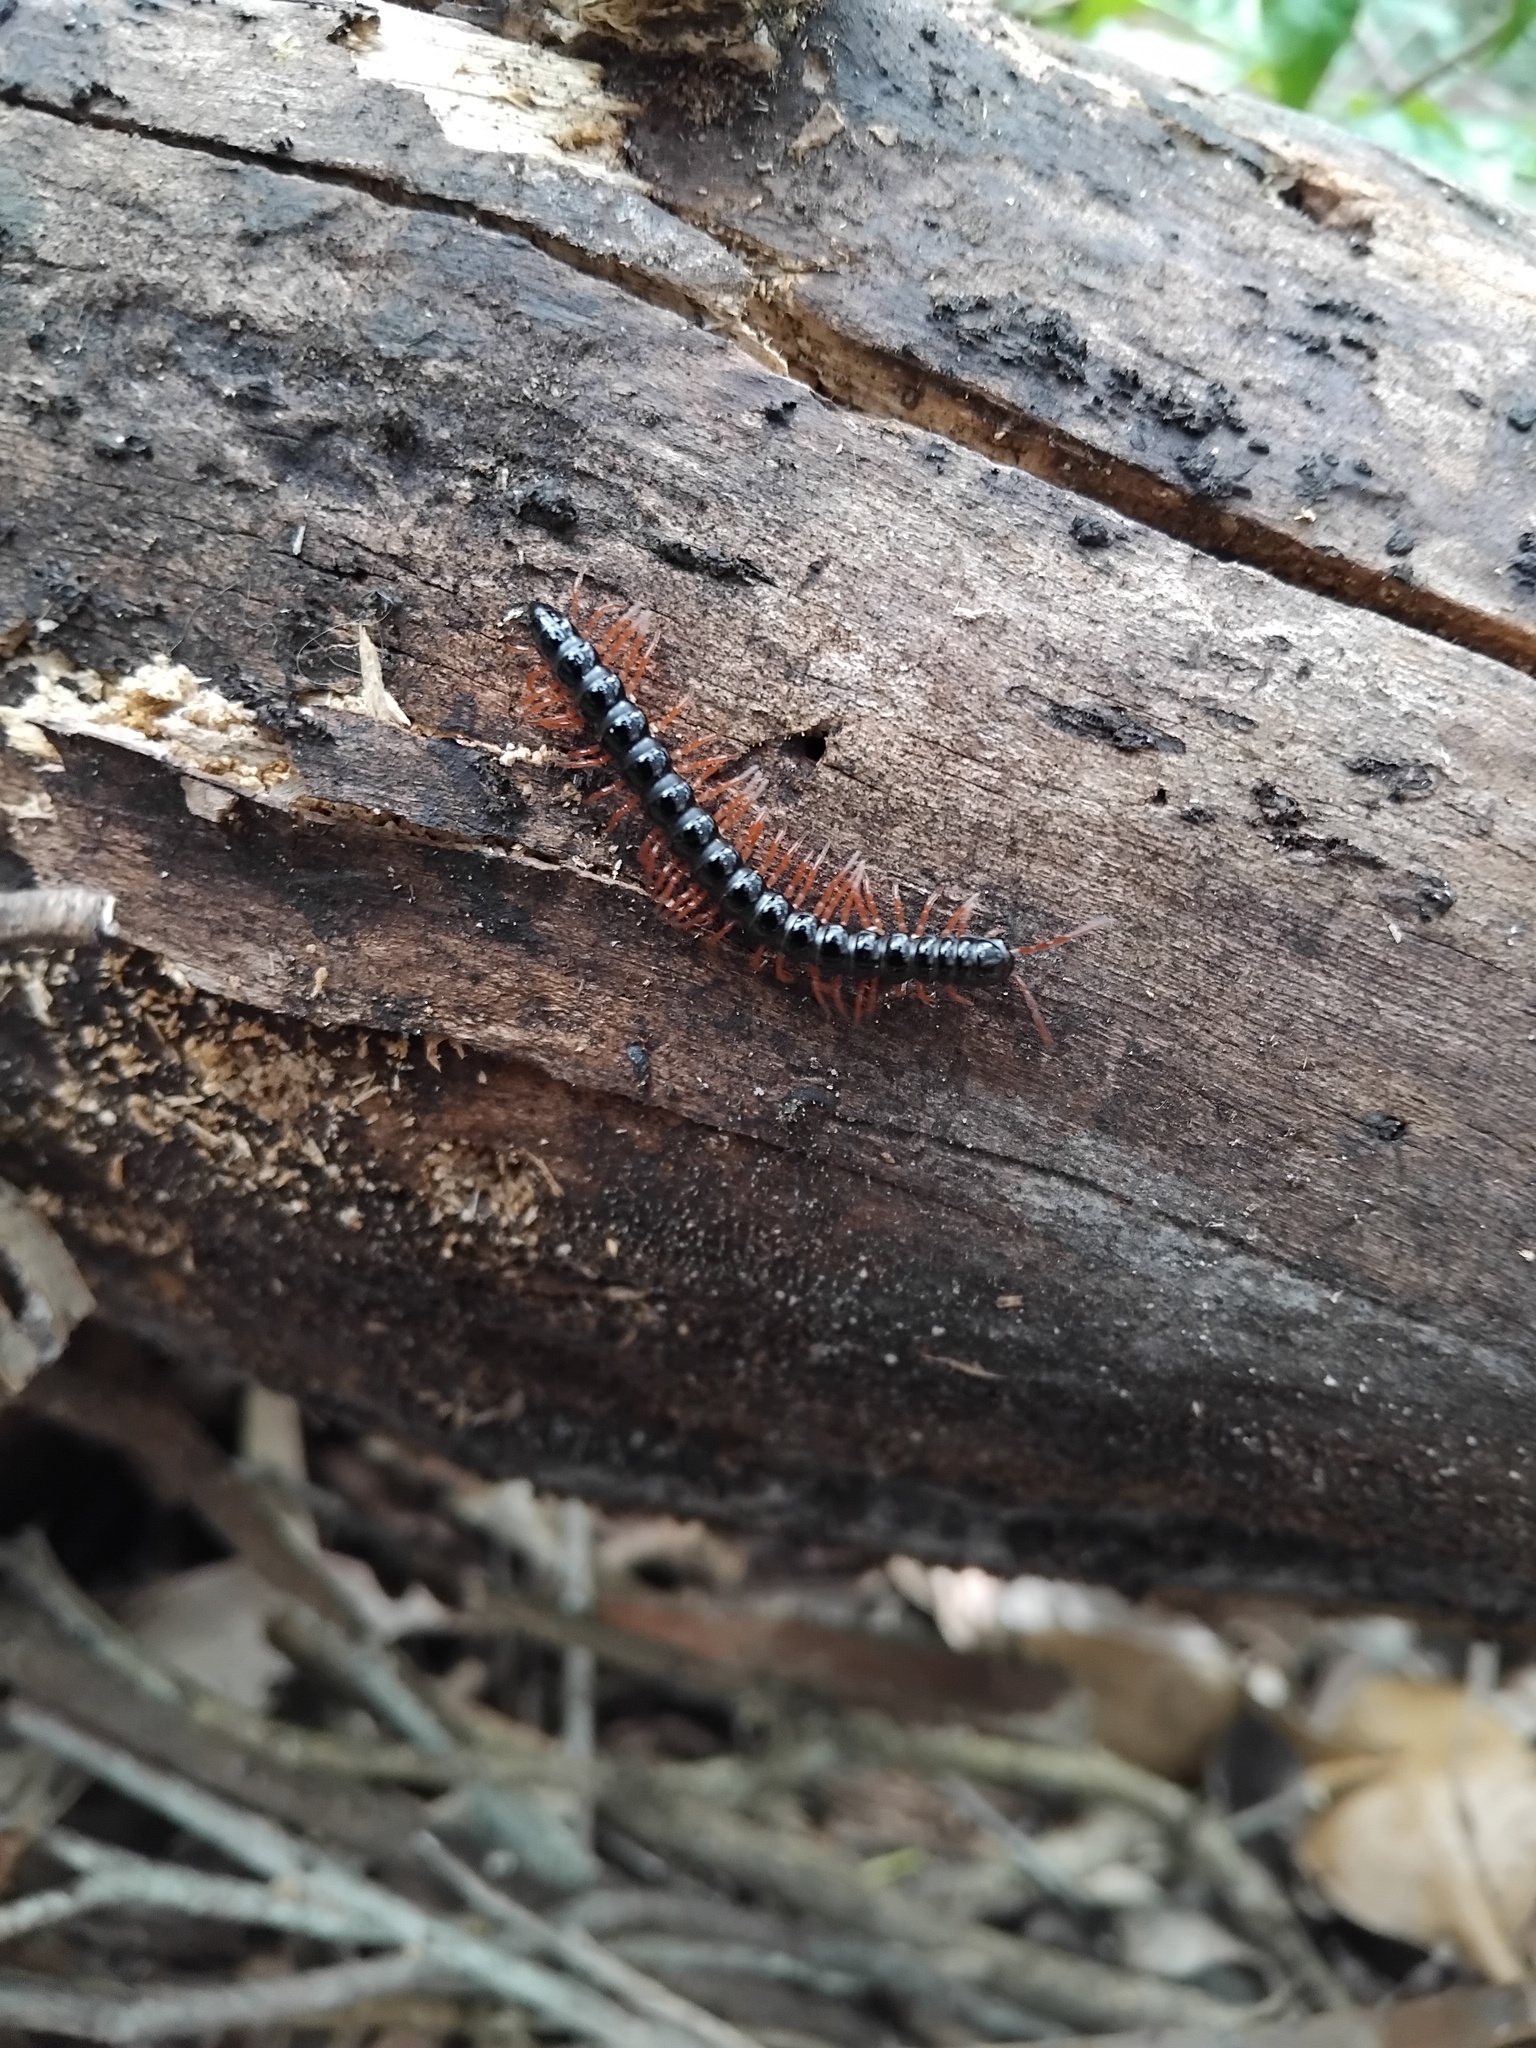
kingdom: Animalia
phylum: Arthropoda
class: Diplopoda
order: Polydesmida
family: Paradoxosomatidae
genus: Heterocladosoma
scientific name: Heterocladosoma
